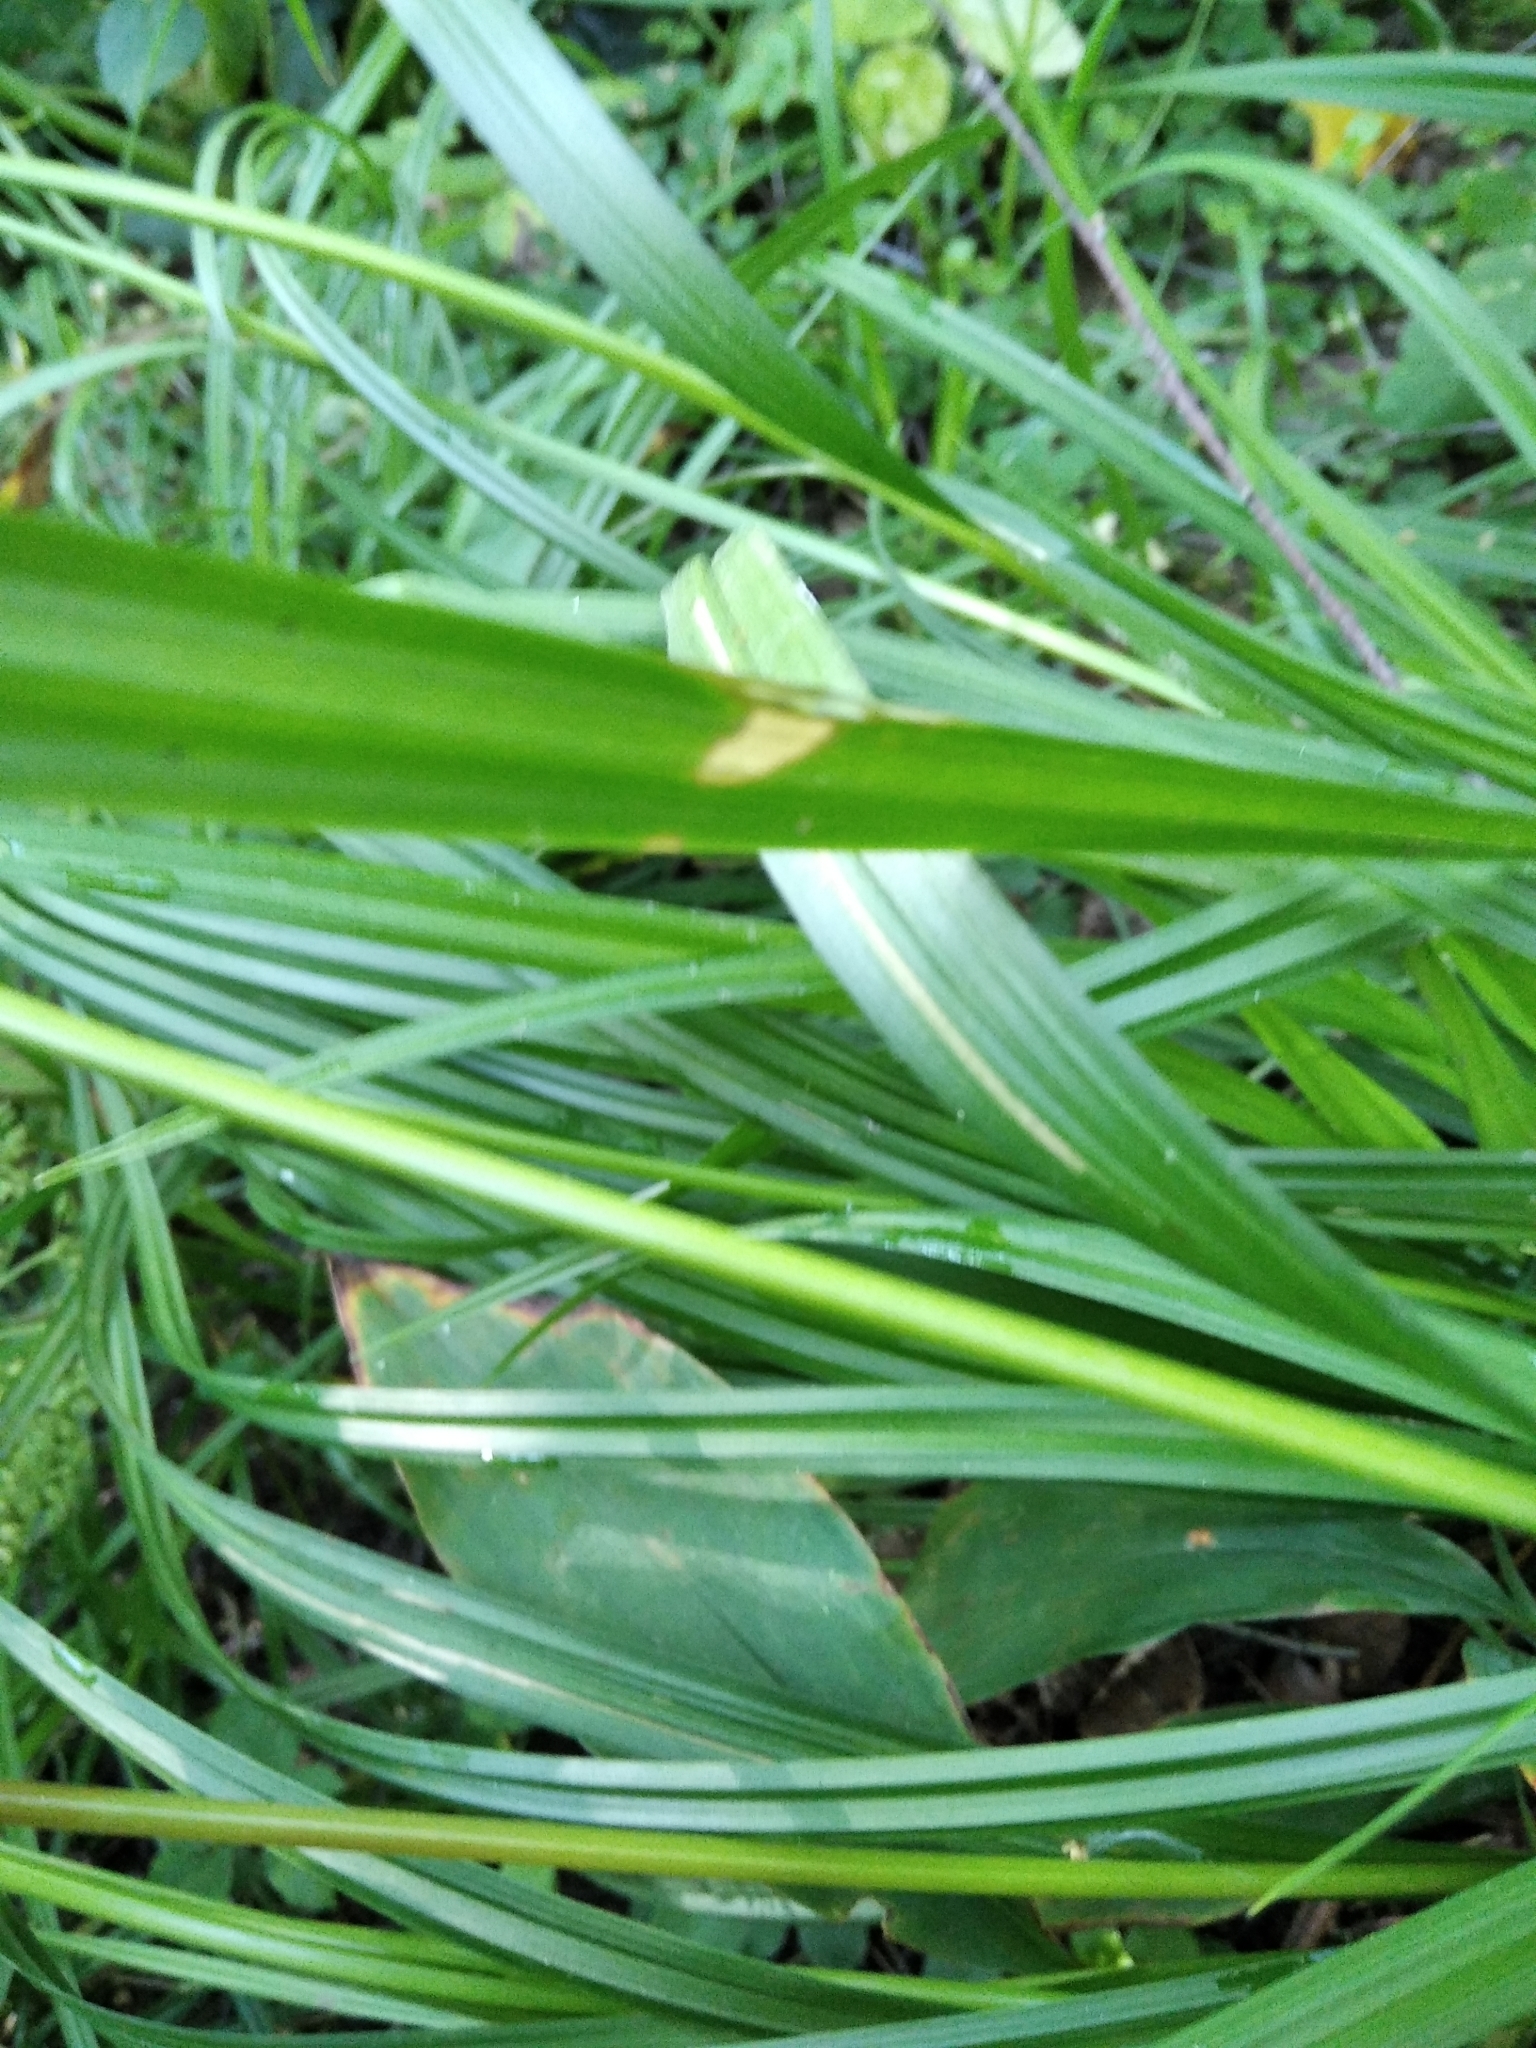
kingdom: Plantae
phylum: Tracheophyta
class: Liliopsida
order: Poales
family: Cyperaceae
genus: Carex
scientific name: Carex sylvatica
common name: Wood-sedge
